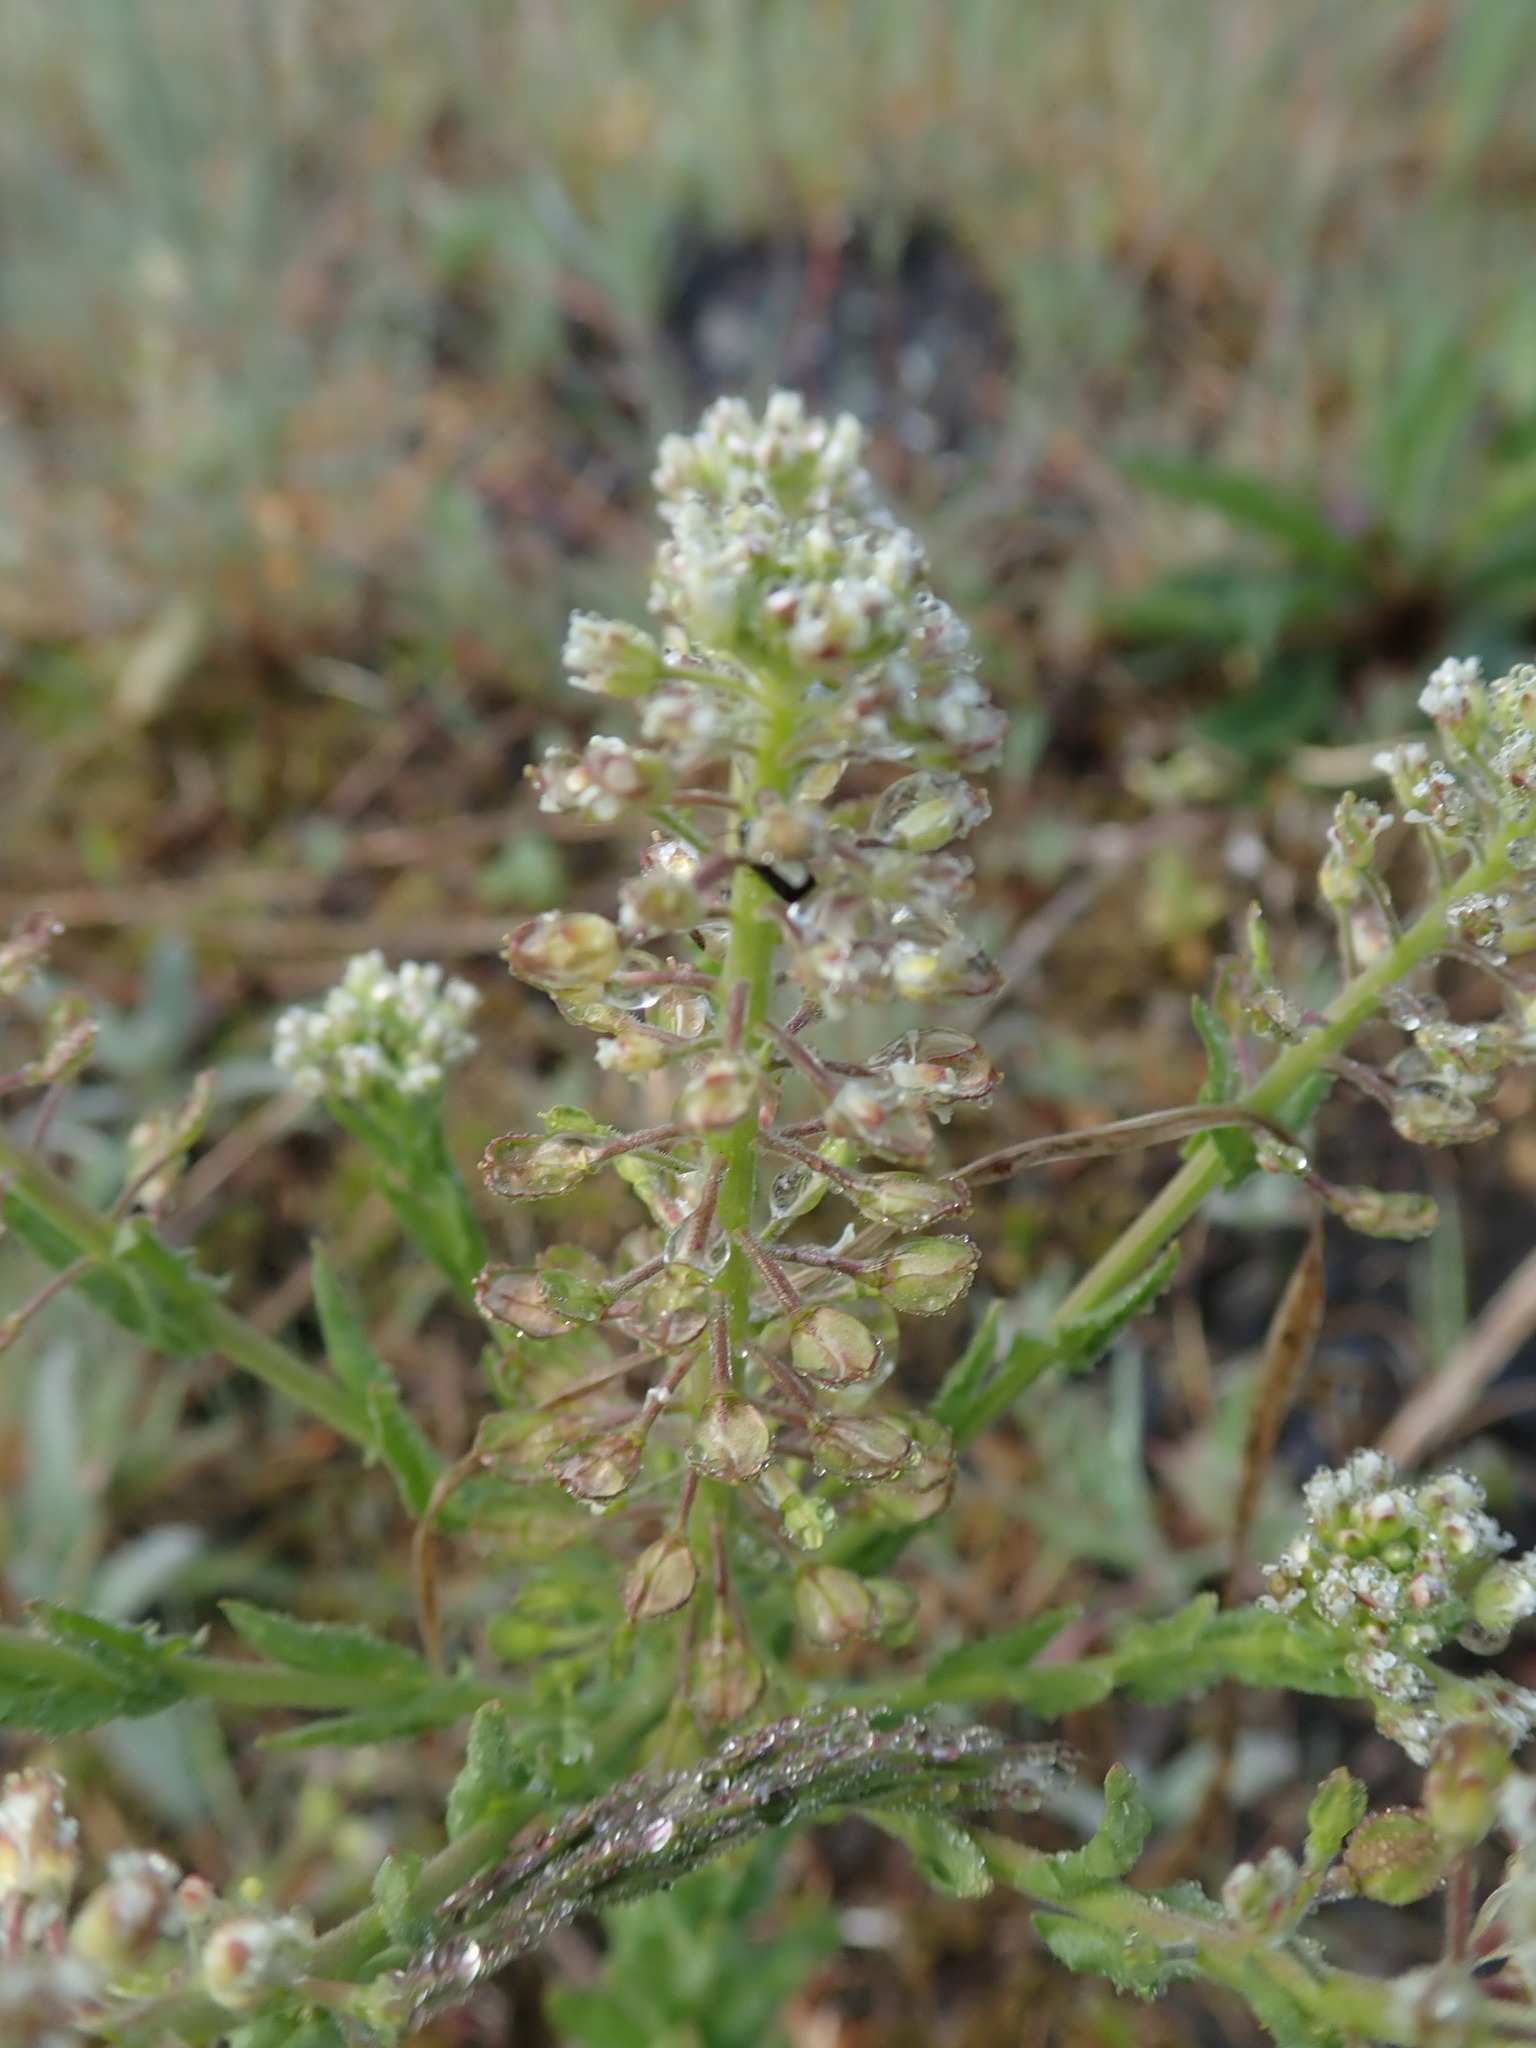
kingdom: Plantae
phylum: Tracheophyta
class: Magnoliopsida
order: Brassicales
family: Brassicaceae
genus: Lepidium
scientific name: Lepidium campestre
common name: Field pepperwort
